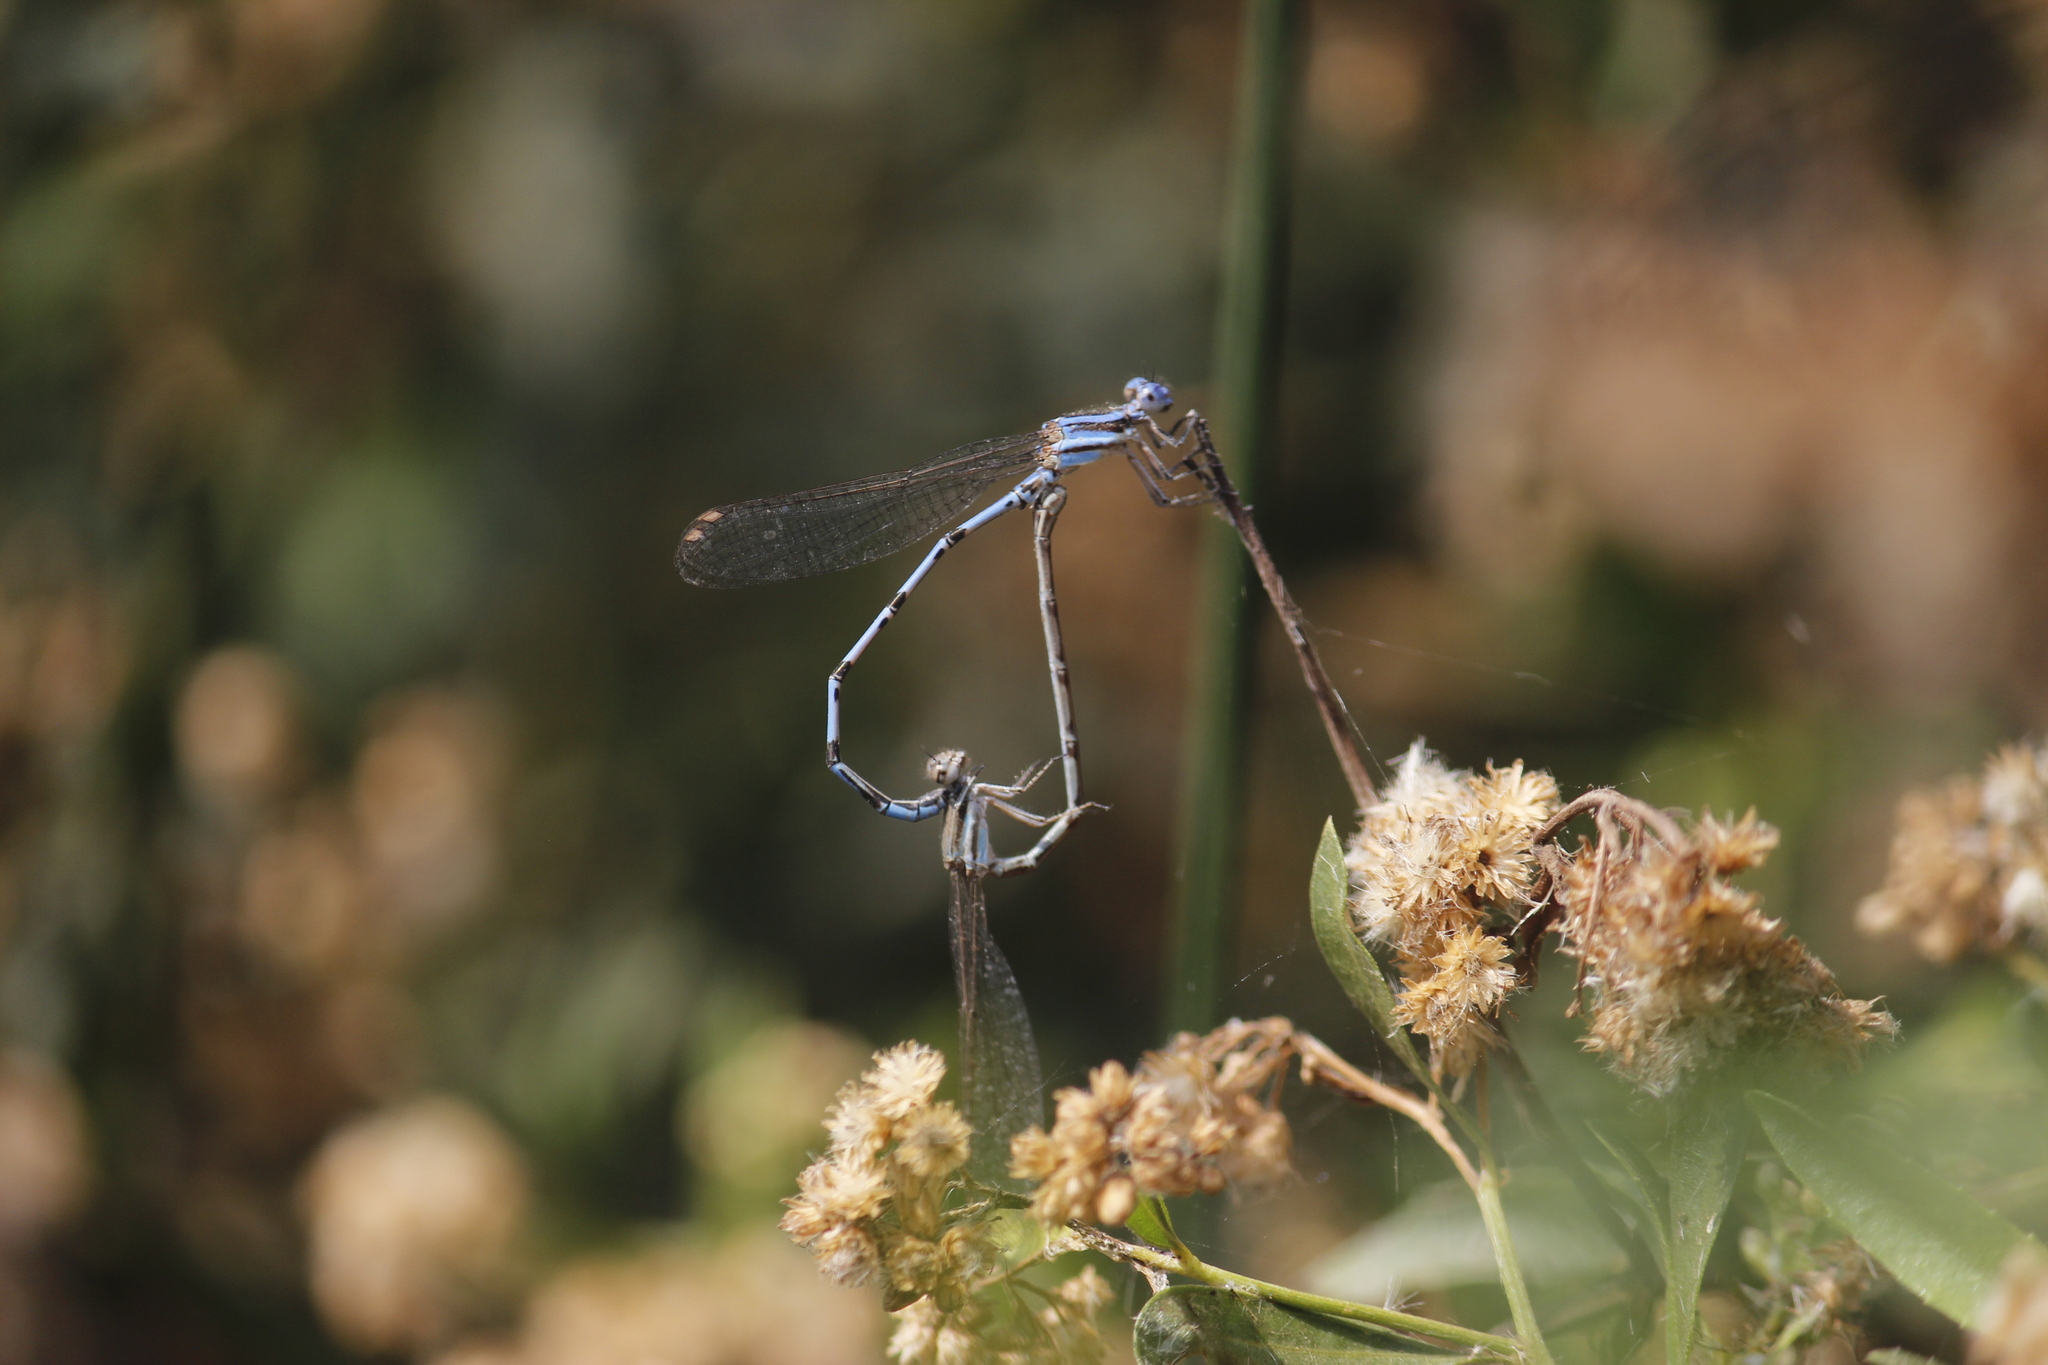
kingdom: Animalia
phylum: Arthropoda
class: Insecta
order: Odonata
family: Coenagrionidae
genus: Argia
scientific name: Argia inculta
